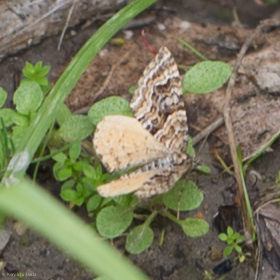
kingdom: Animalia
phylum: Arthropoda
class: Insecta
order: Lepidoptera
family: Geometridae
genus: Epirrhoe
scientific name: Epirrhoe plebeculata
